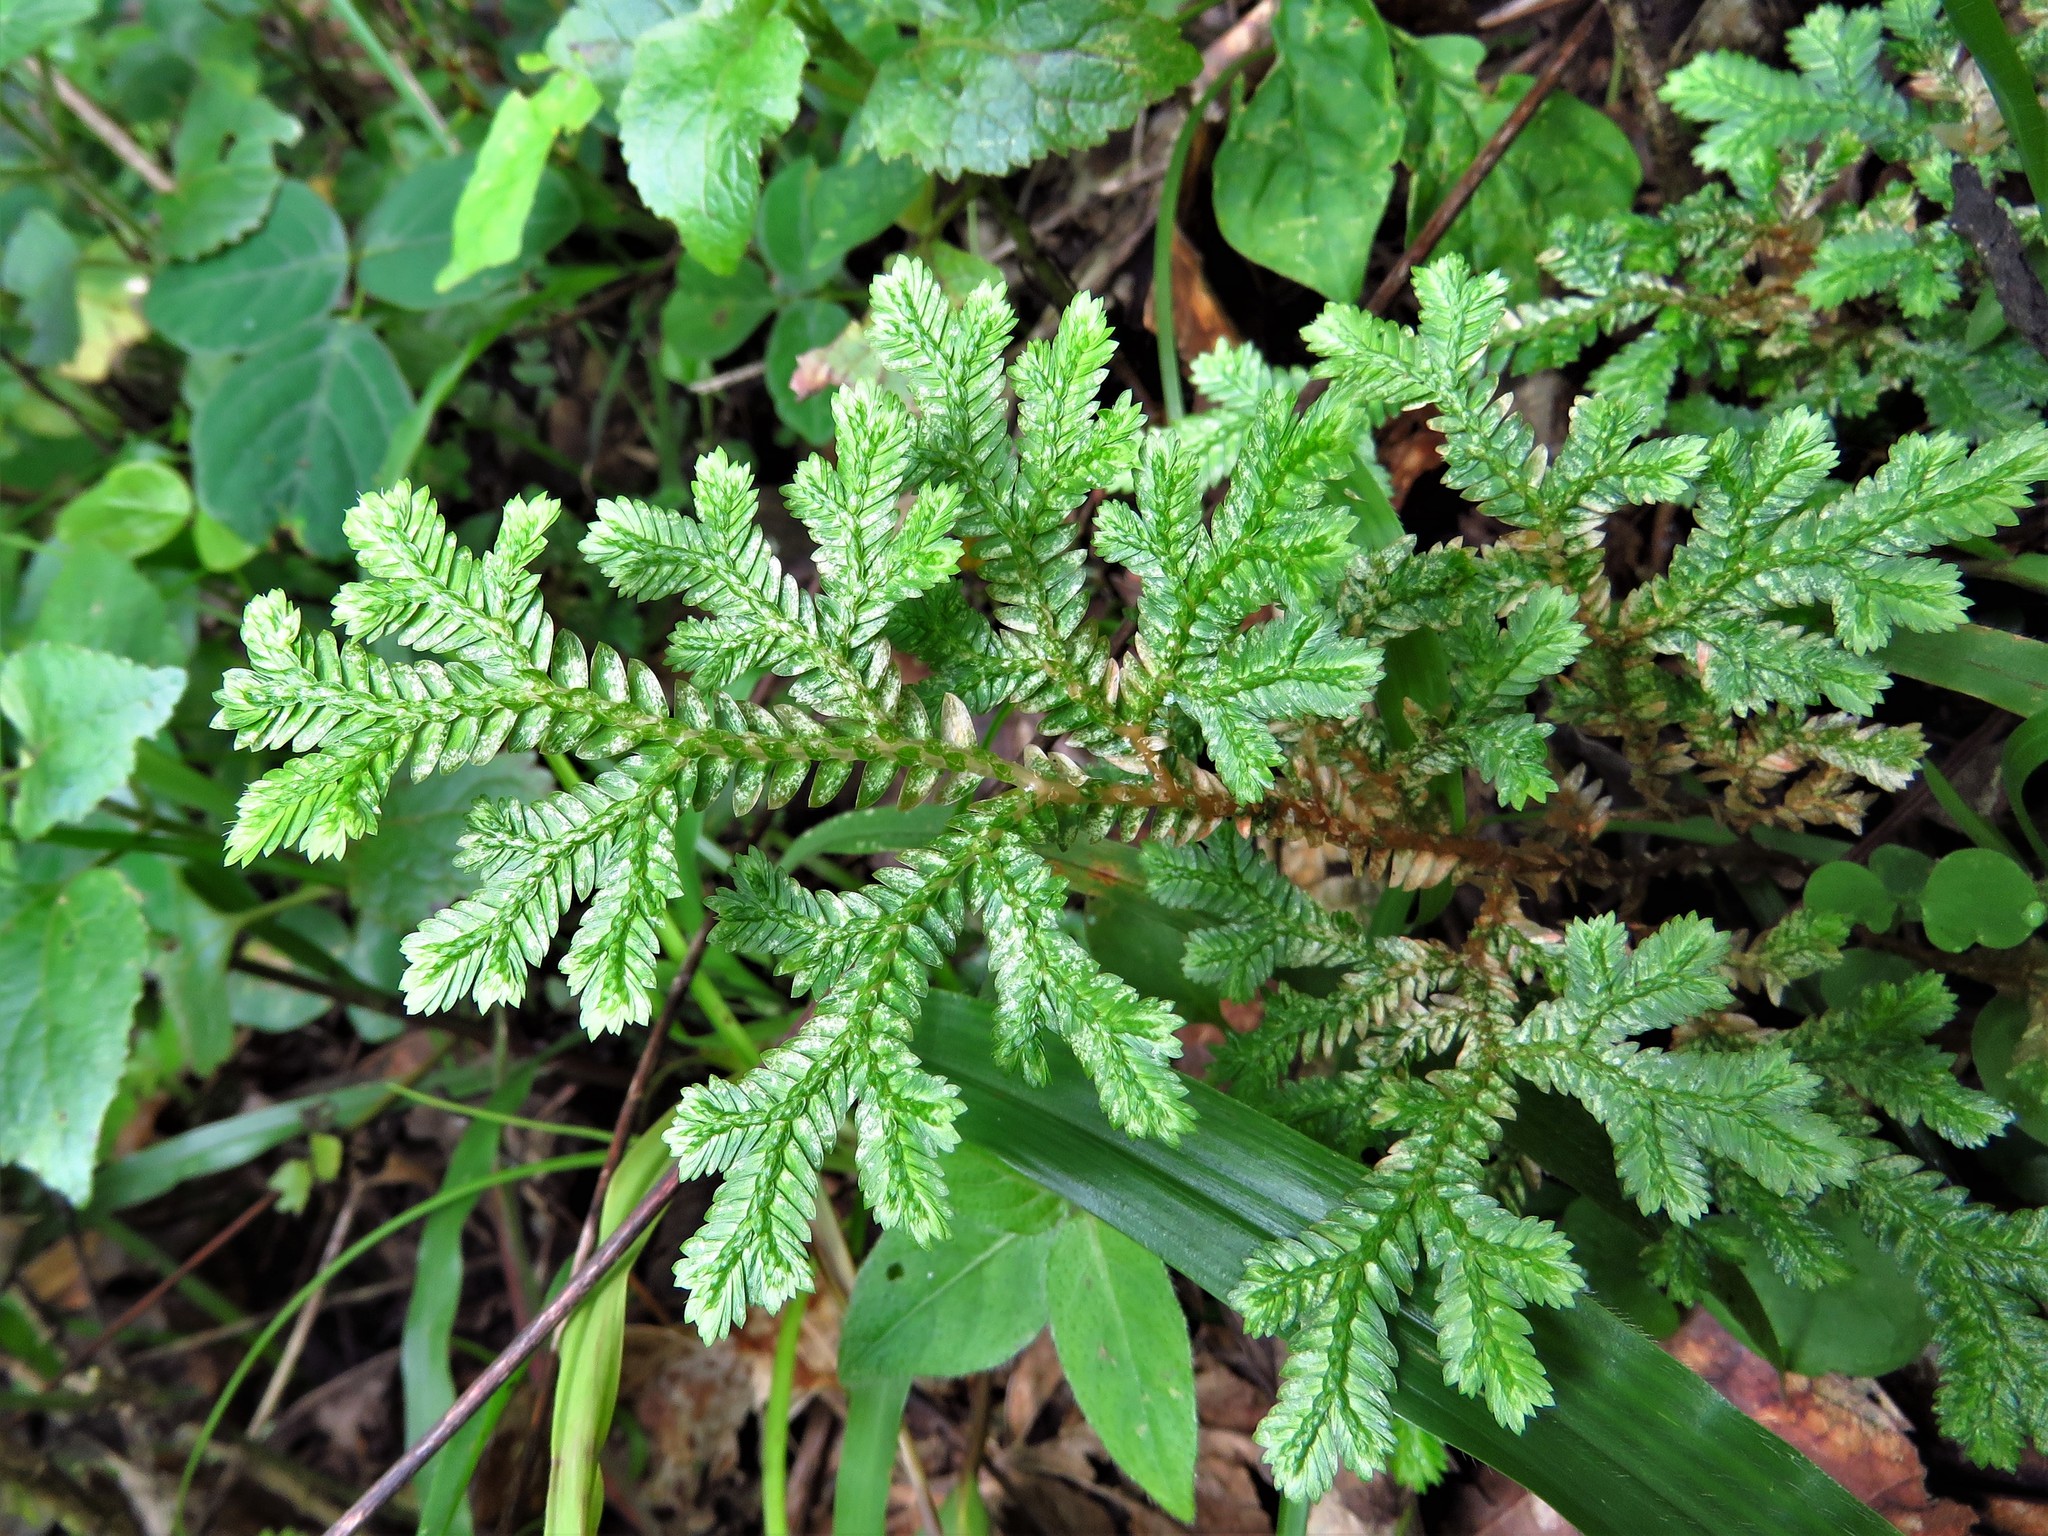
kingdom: Plantae
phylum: Tracheophyta
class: Lycopodiopsida
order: Selaginellales
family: Selaginellaceae
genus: Selaginella
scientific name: Selaginella stenophylla
